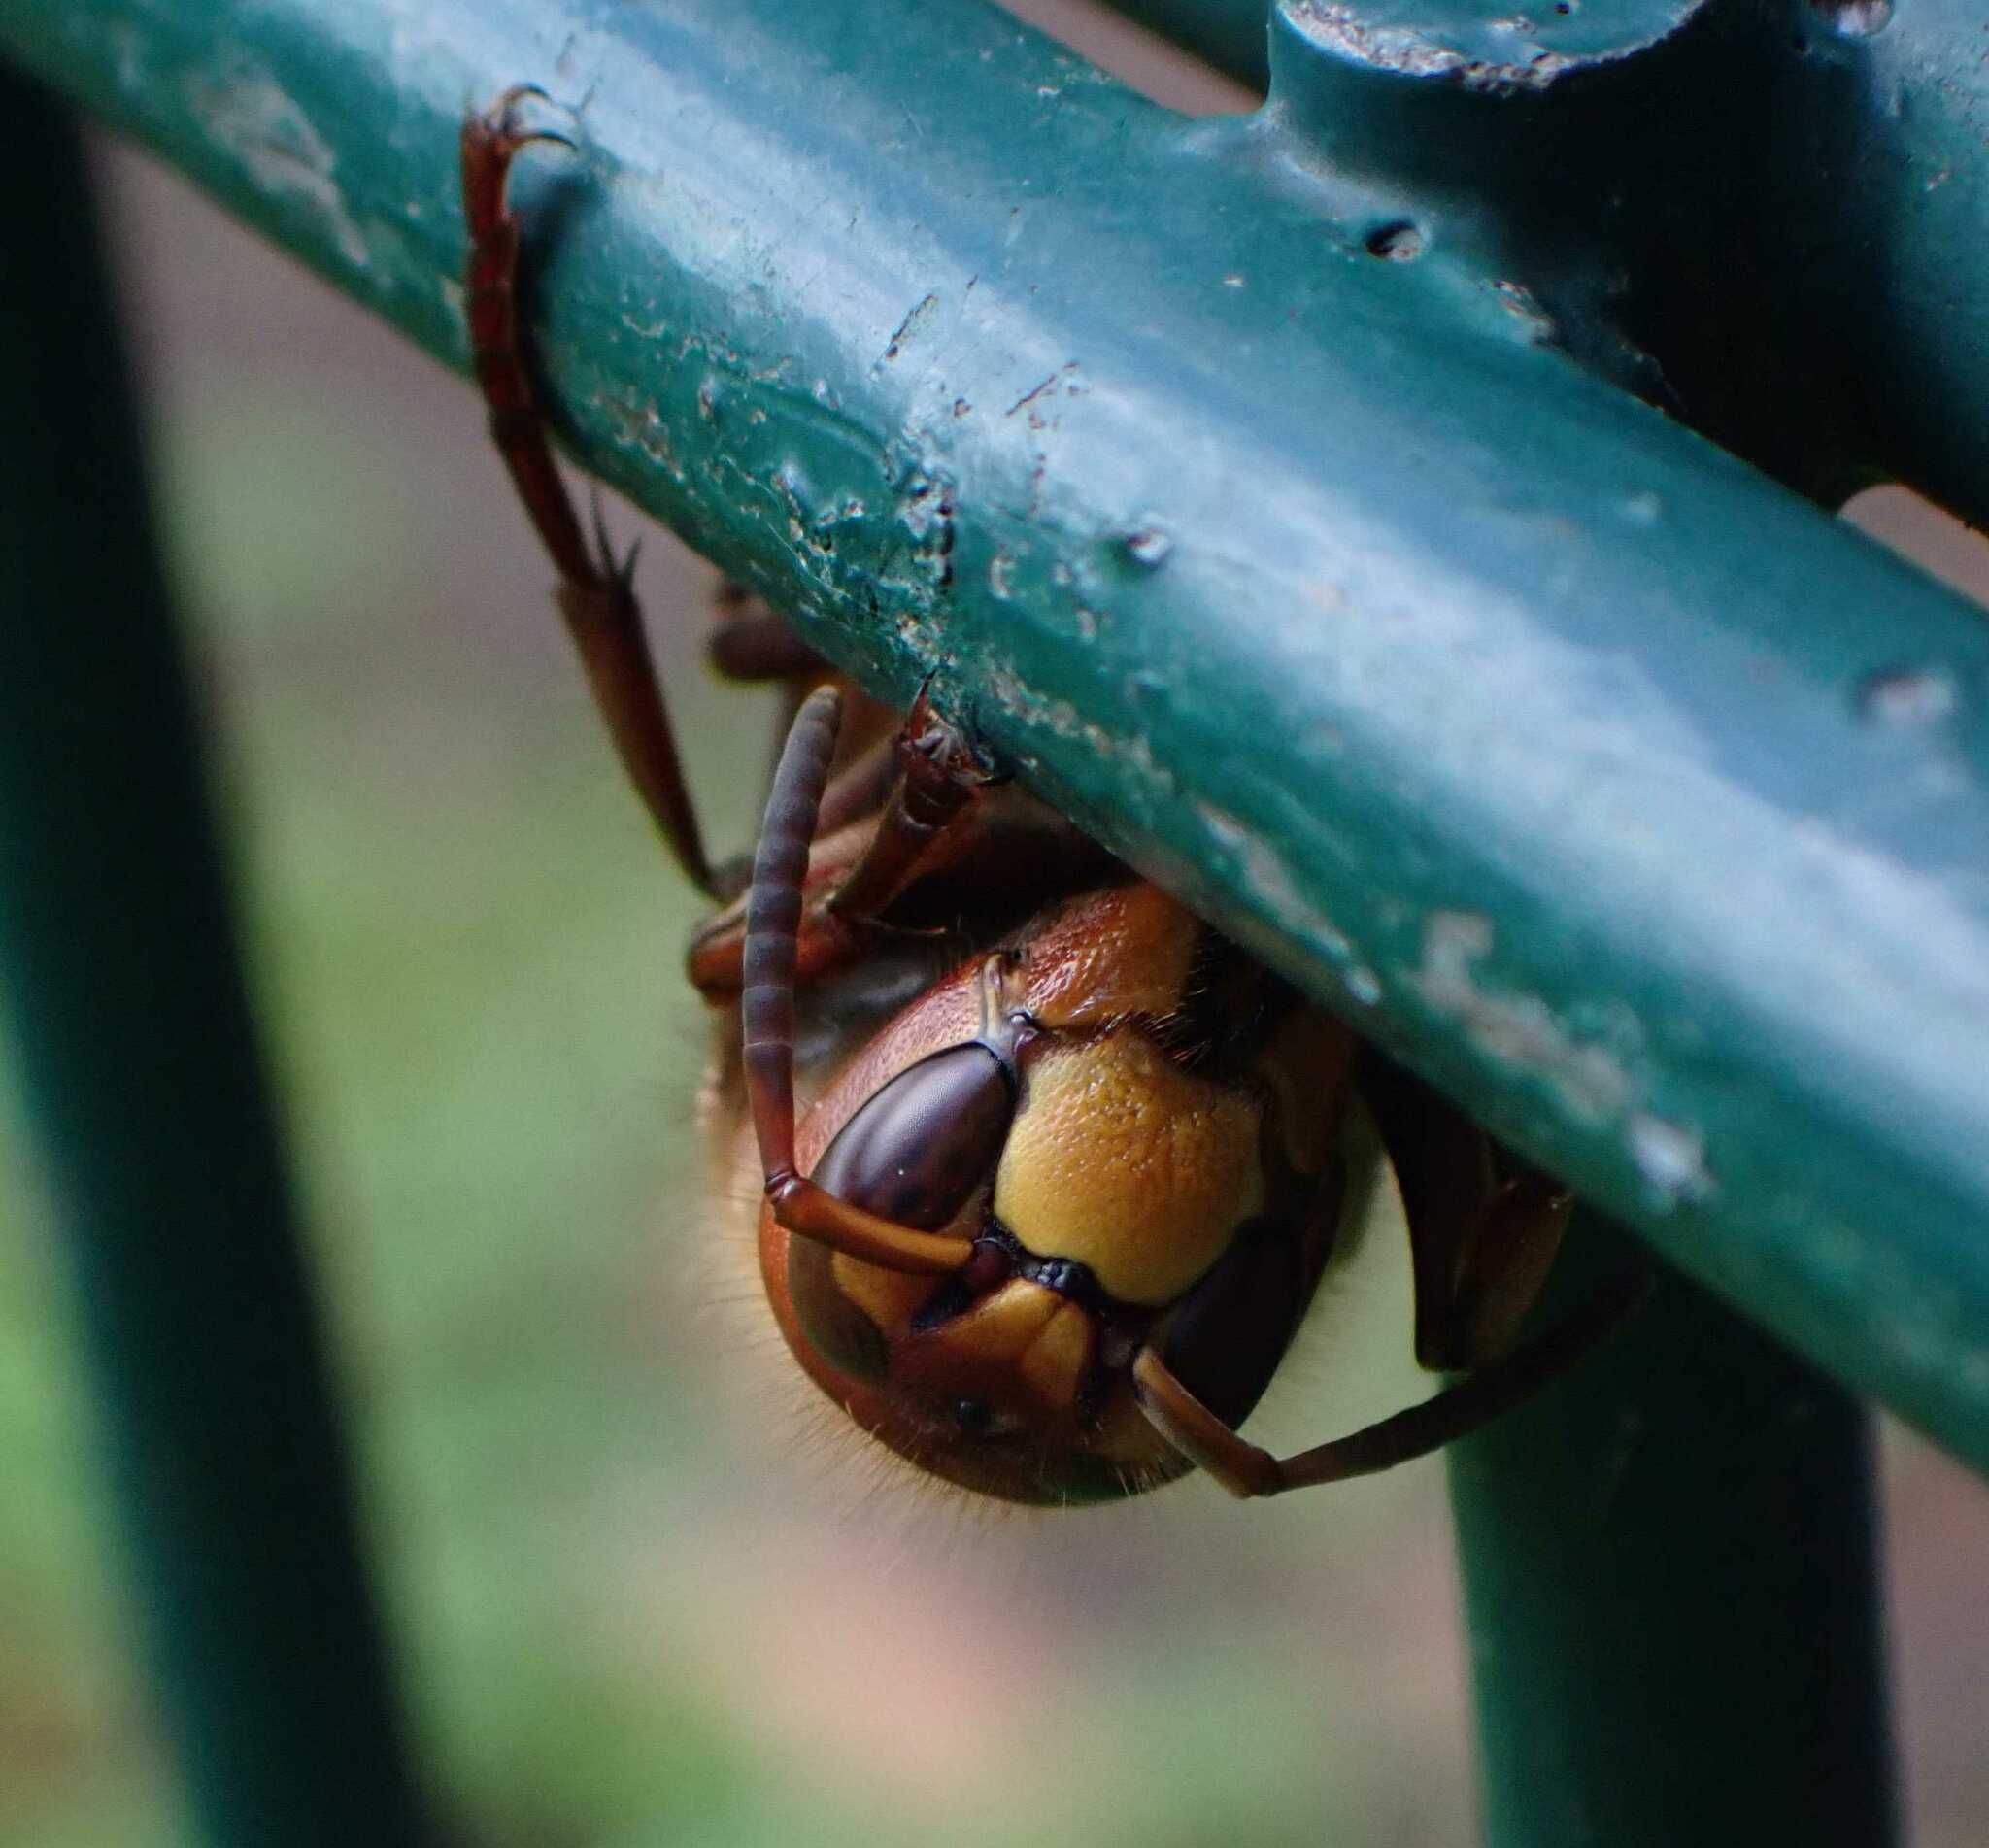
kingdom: Animalia
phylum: Arthropoda
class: Insecta
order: Hymenoptera
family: Vespidae
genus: Vespa
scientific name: Vespa crabro
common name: Hornet
